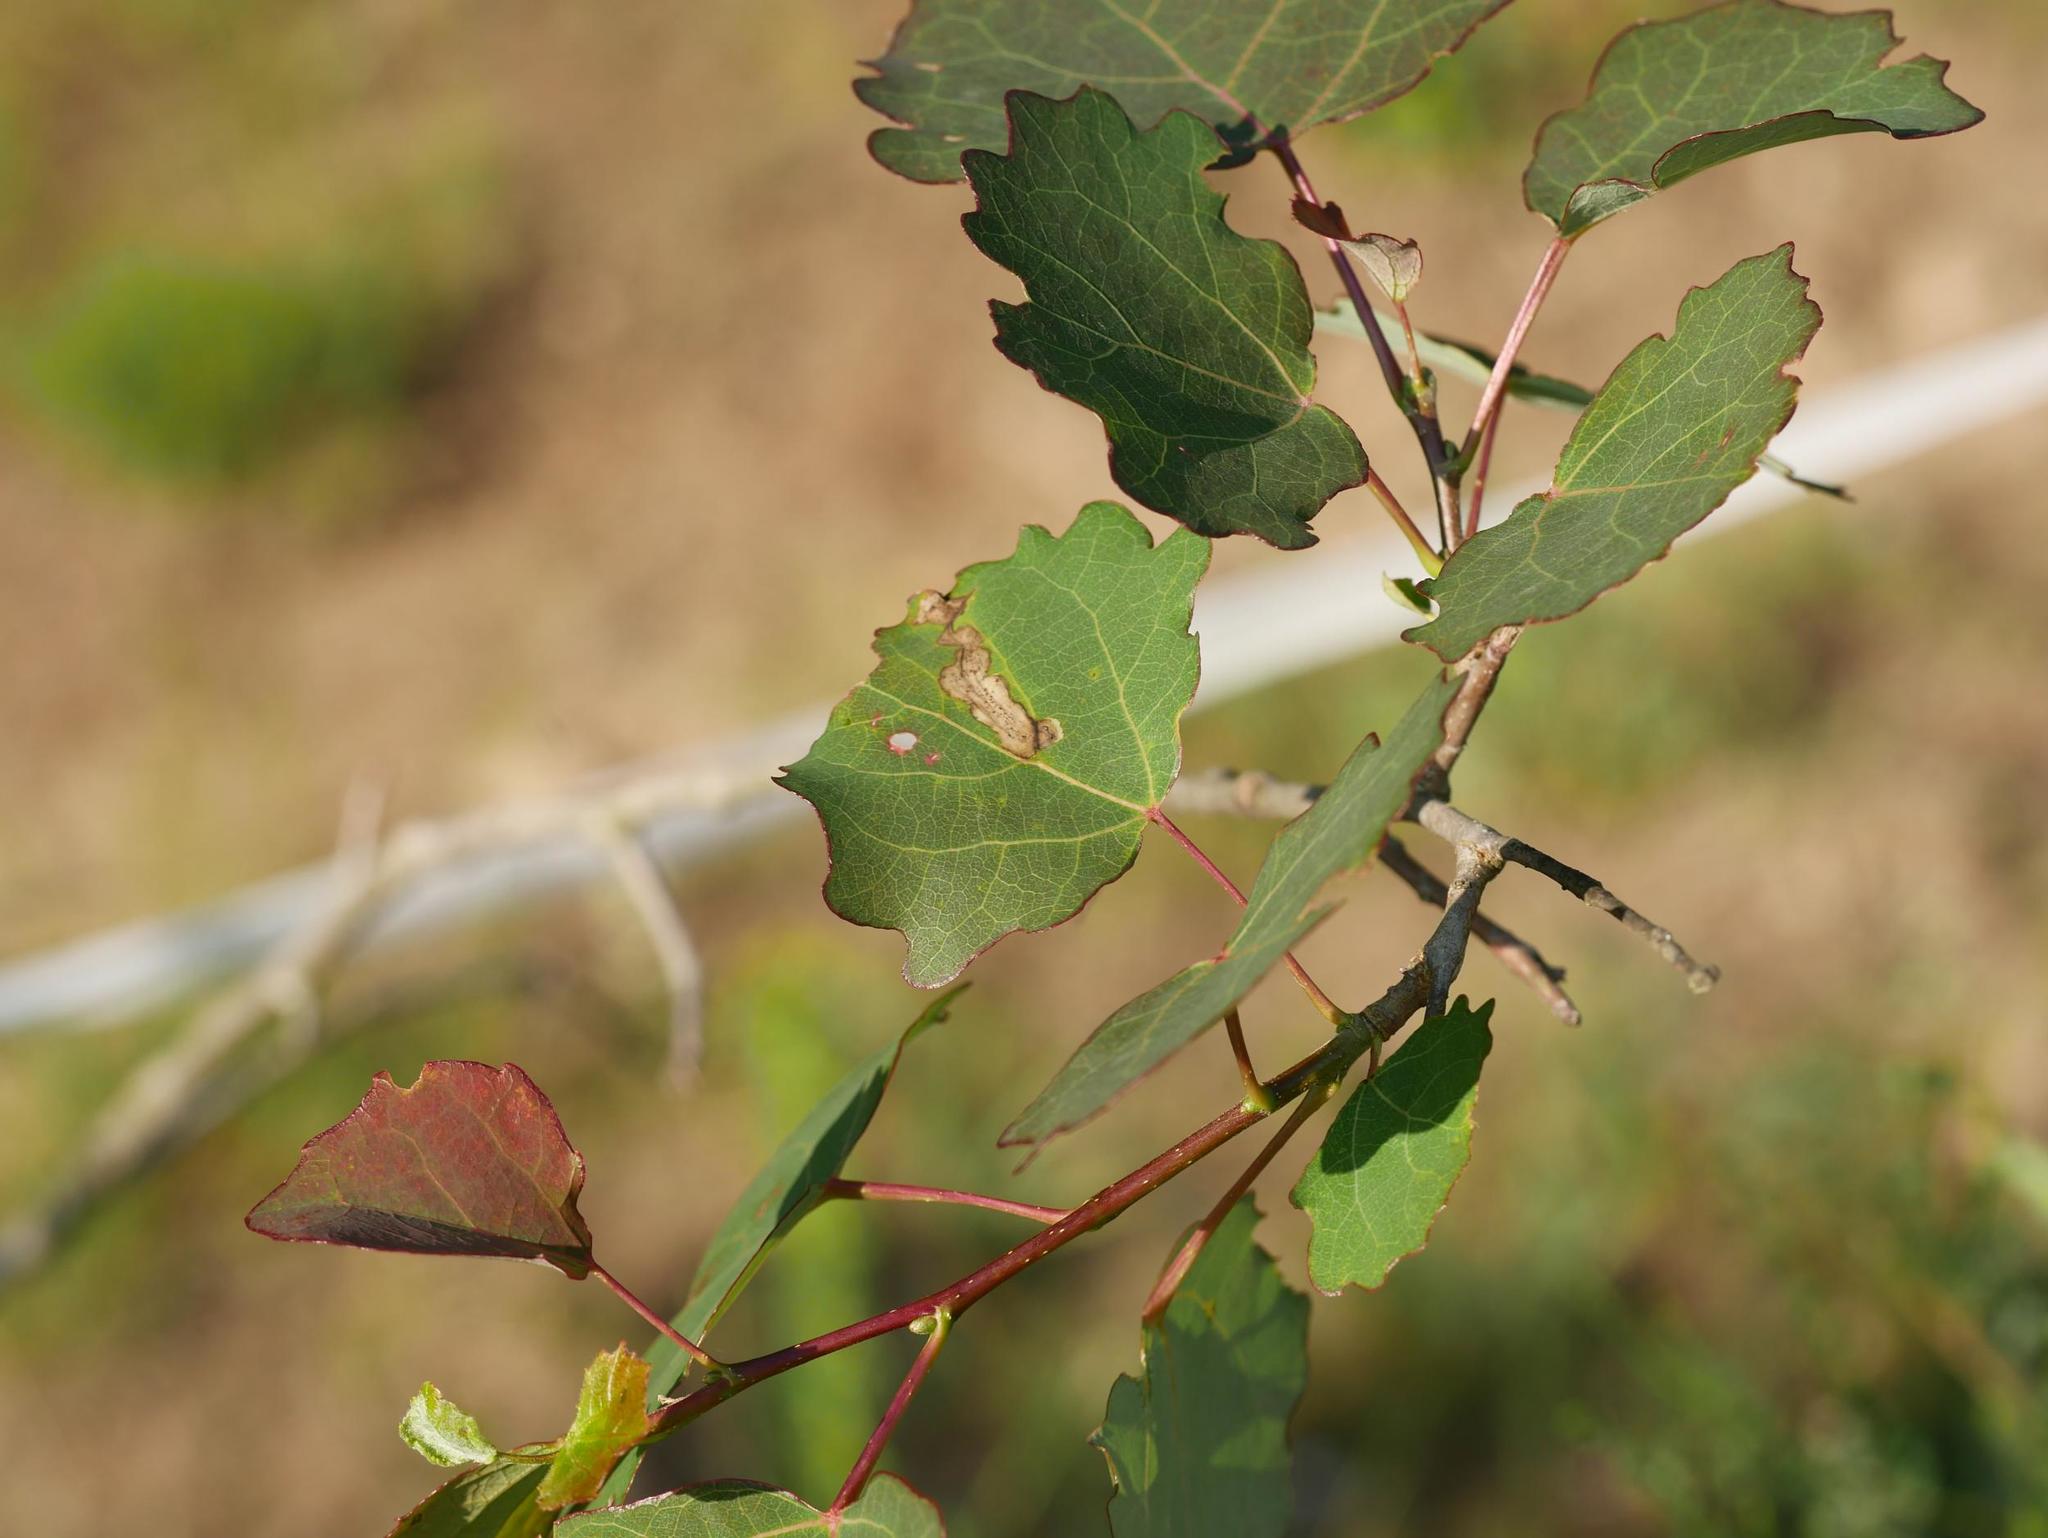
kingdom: Plantae
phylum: Tracheophyta
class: Magnoliopsida
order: Malpighiales
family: Salicaceae
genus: Populus
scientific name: Populus tremula
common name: European aspen
